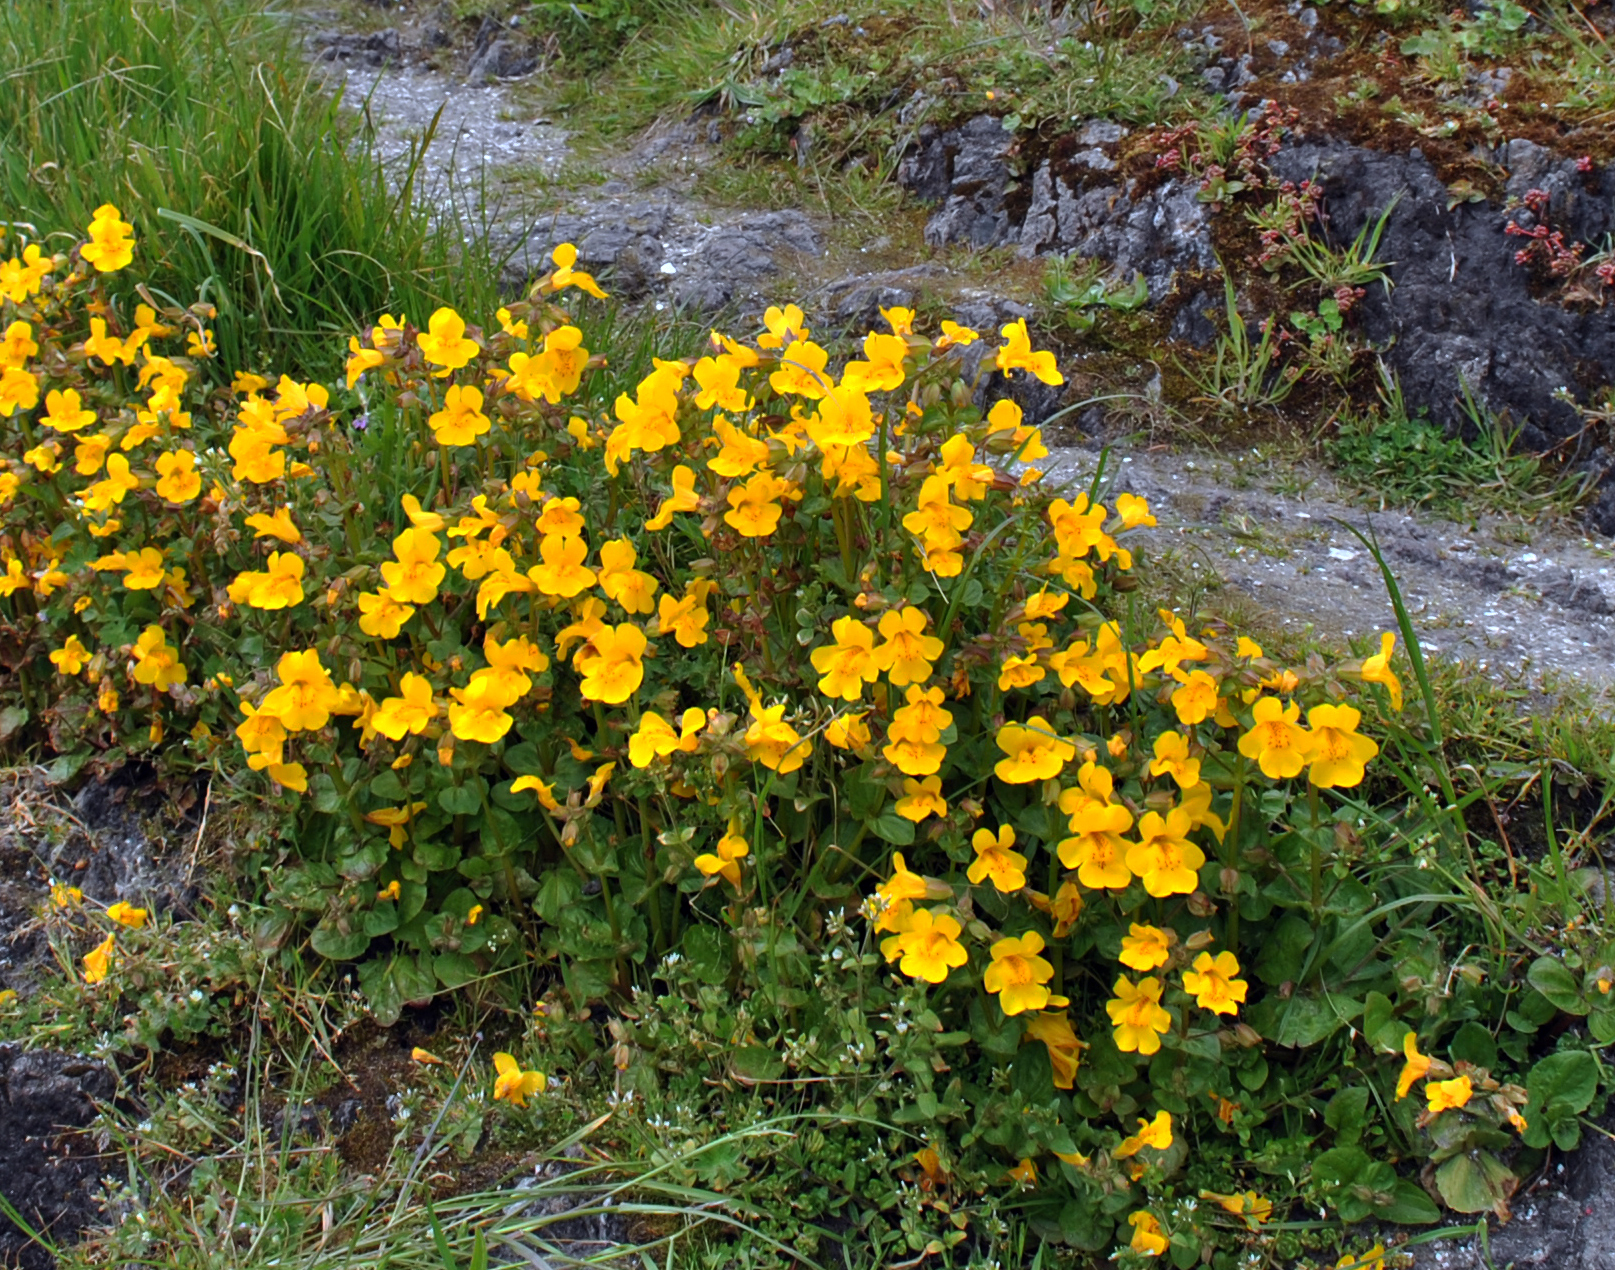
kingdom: Plantae
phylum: Tracheophyta
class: Magnoliopsida
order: Lamiales
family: Phrymaceae
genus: Erythranthe
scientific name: Erythranthe guttata
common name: Monkeyflower
